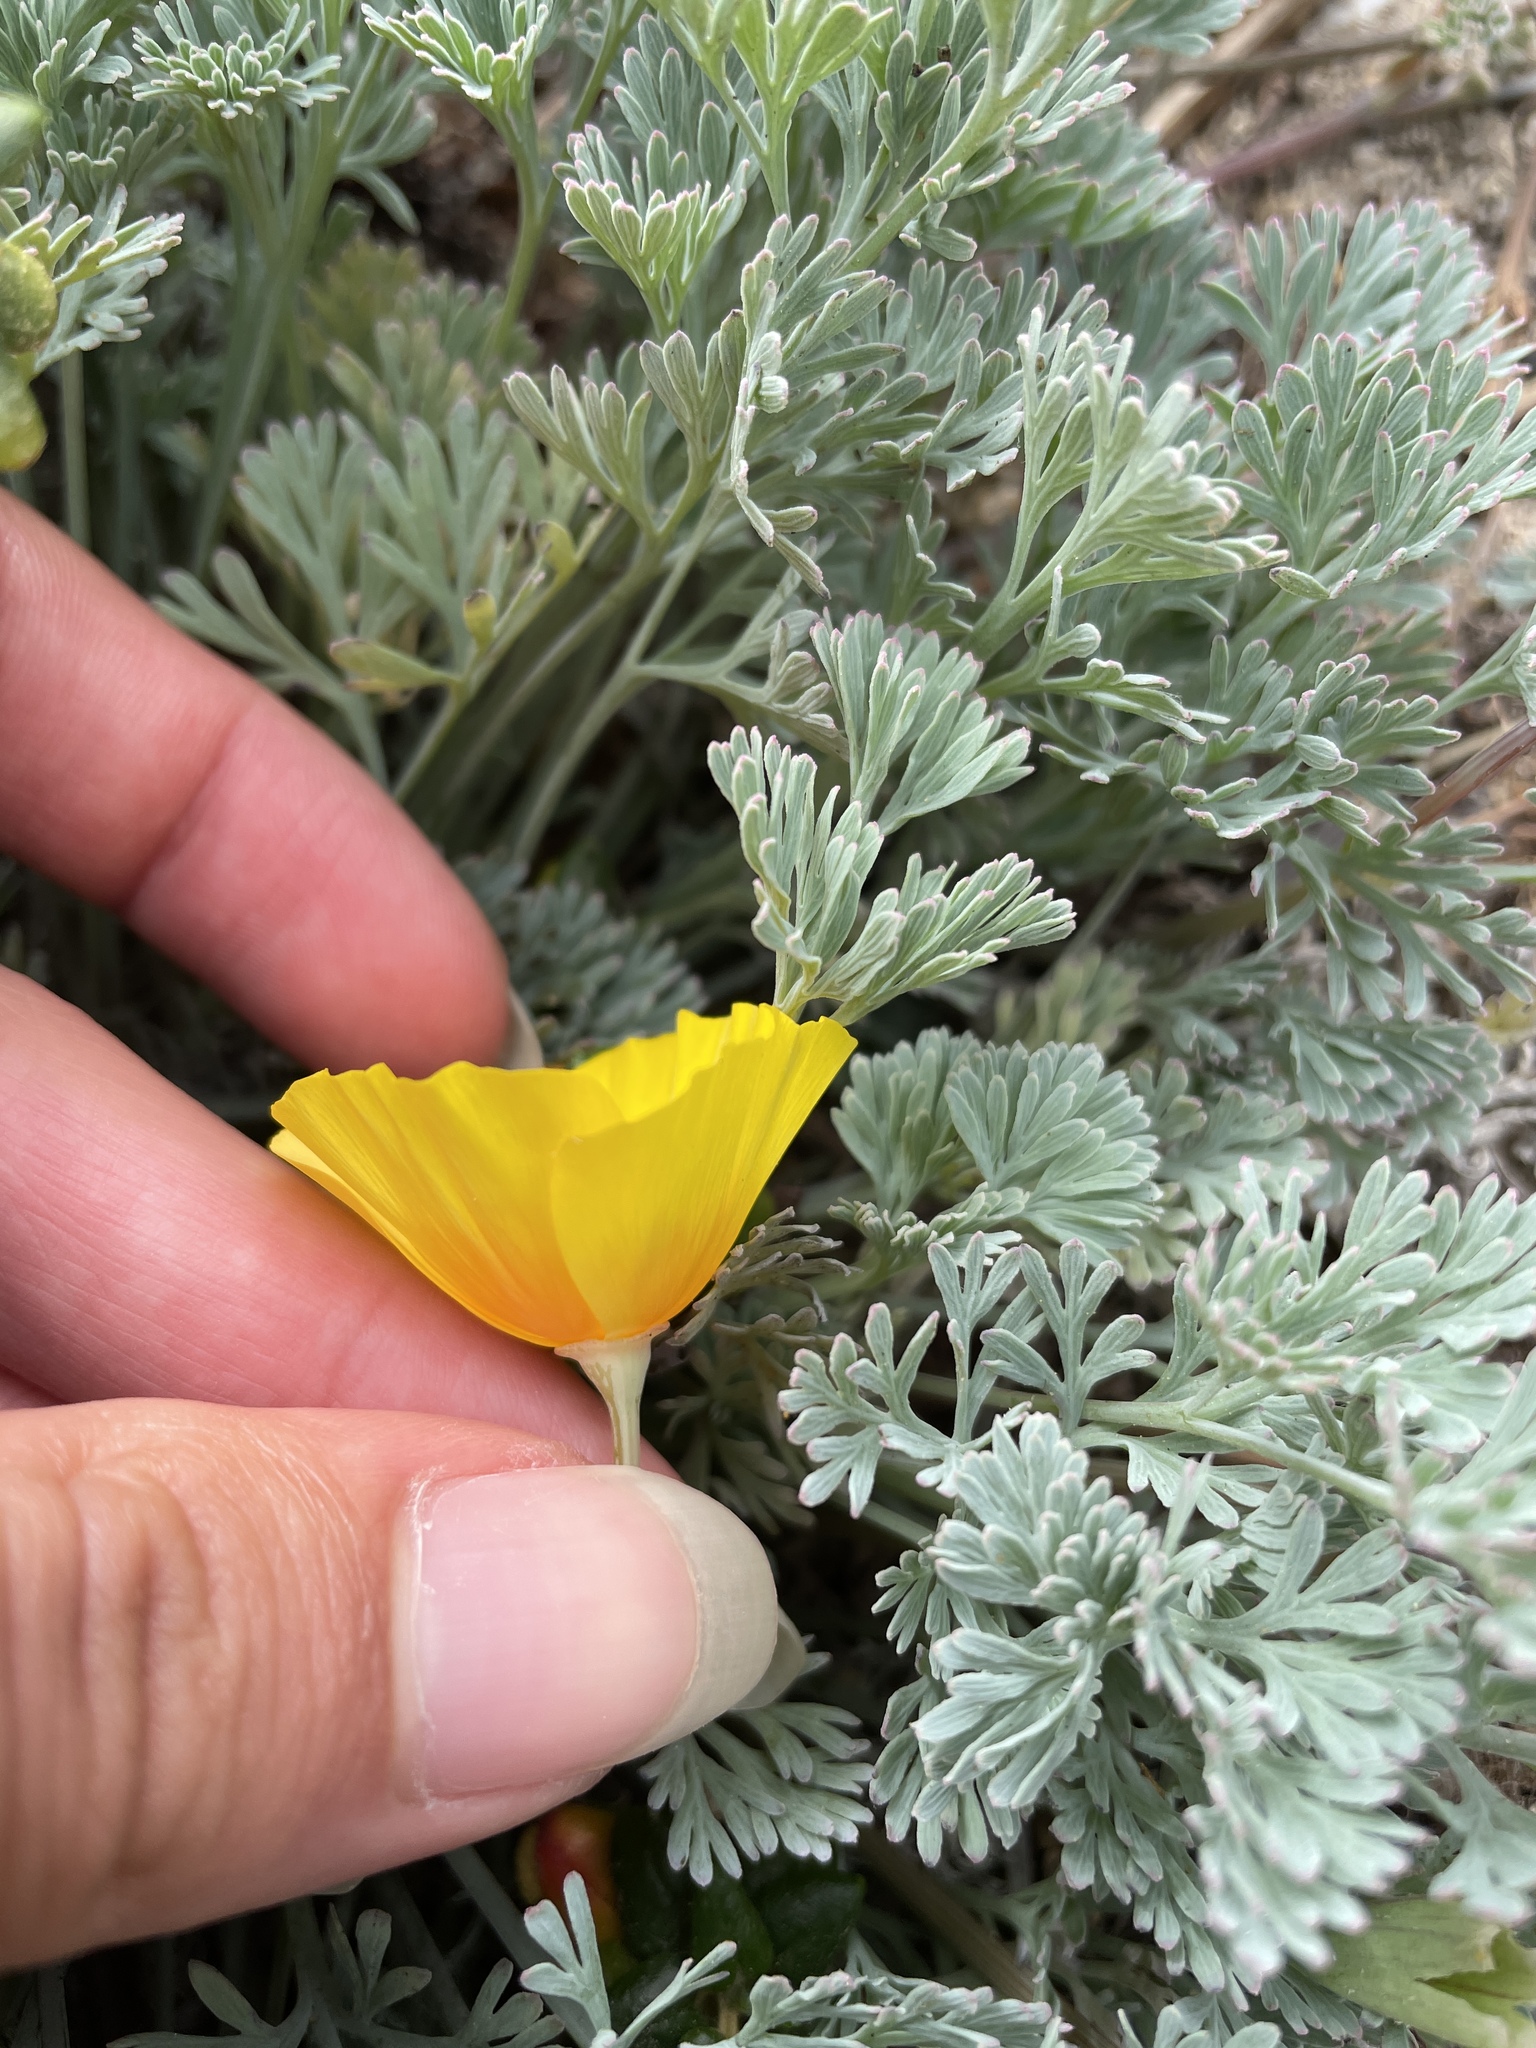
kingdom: Plantae
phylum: Tracheophyta
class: Magnoliopsida
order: Ranunculales
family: Papaveraceae
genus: Eschscholzia
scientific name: Eschscholzia californica
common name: California poppy
